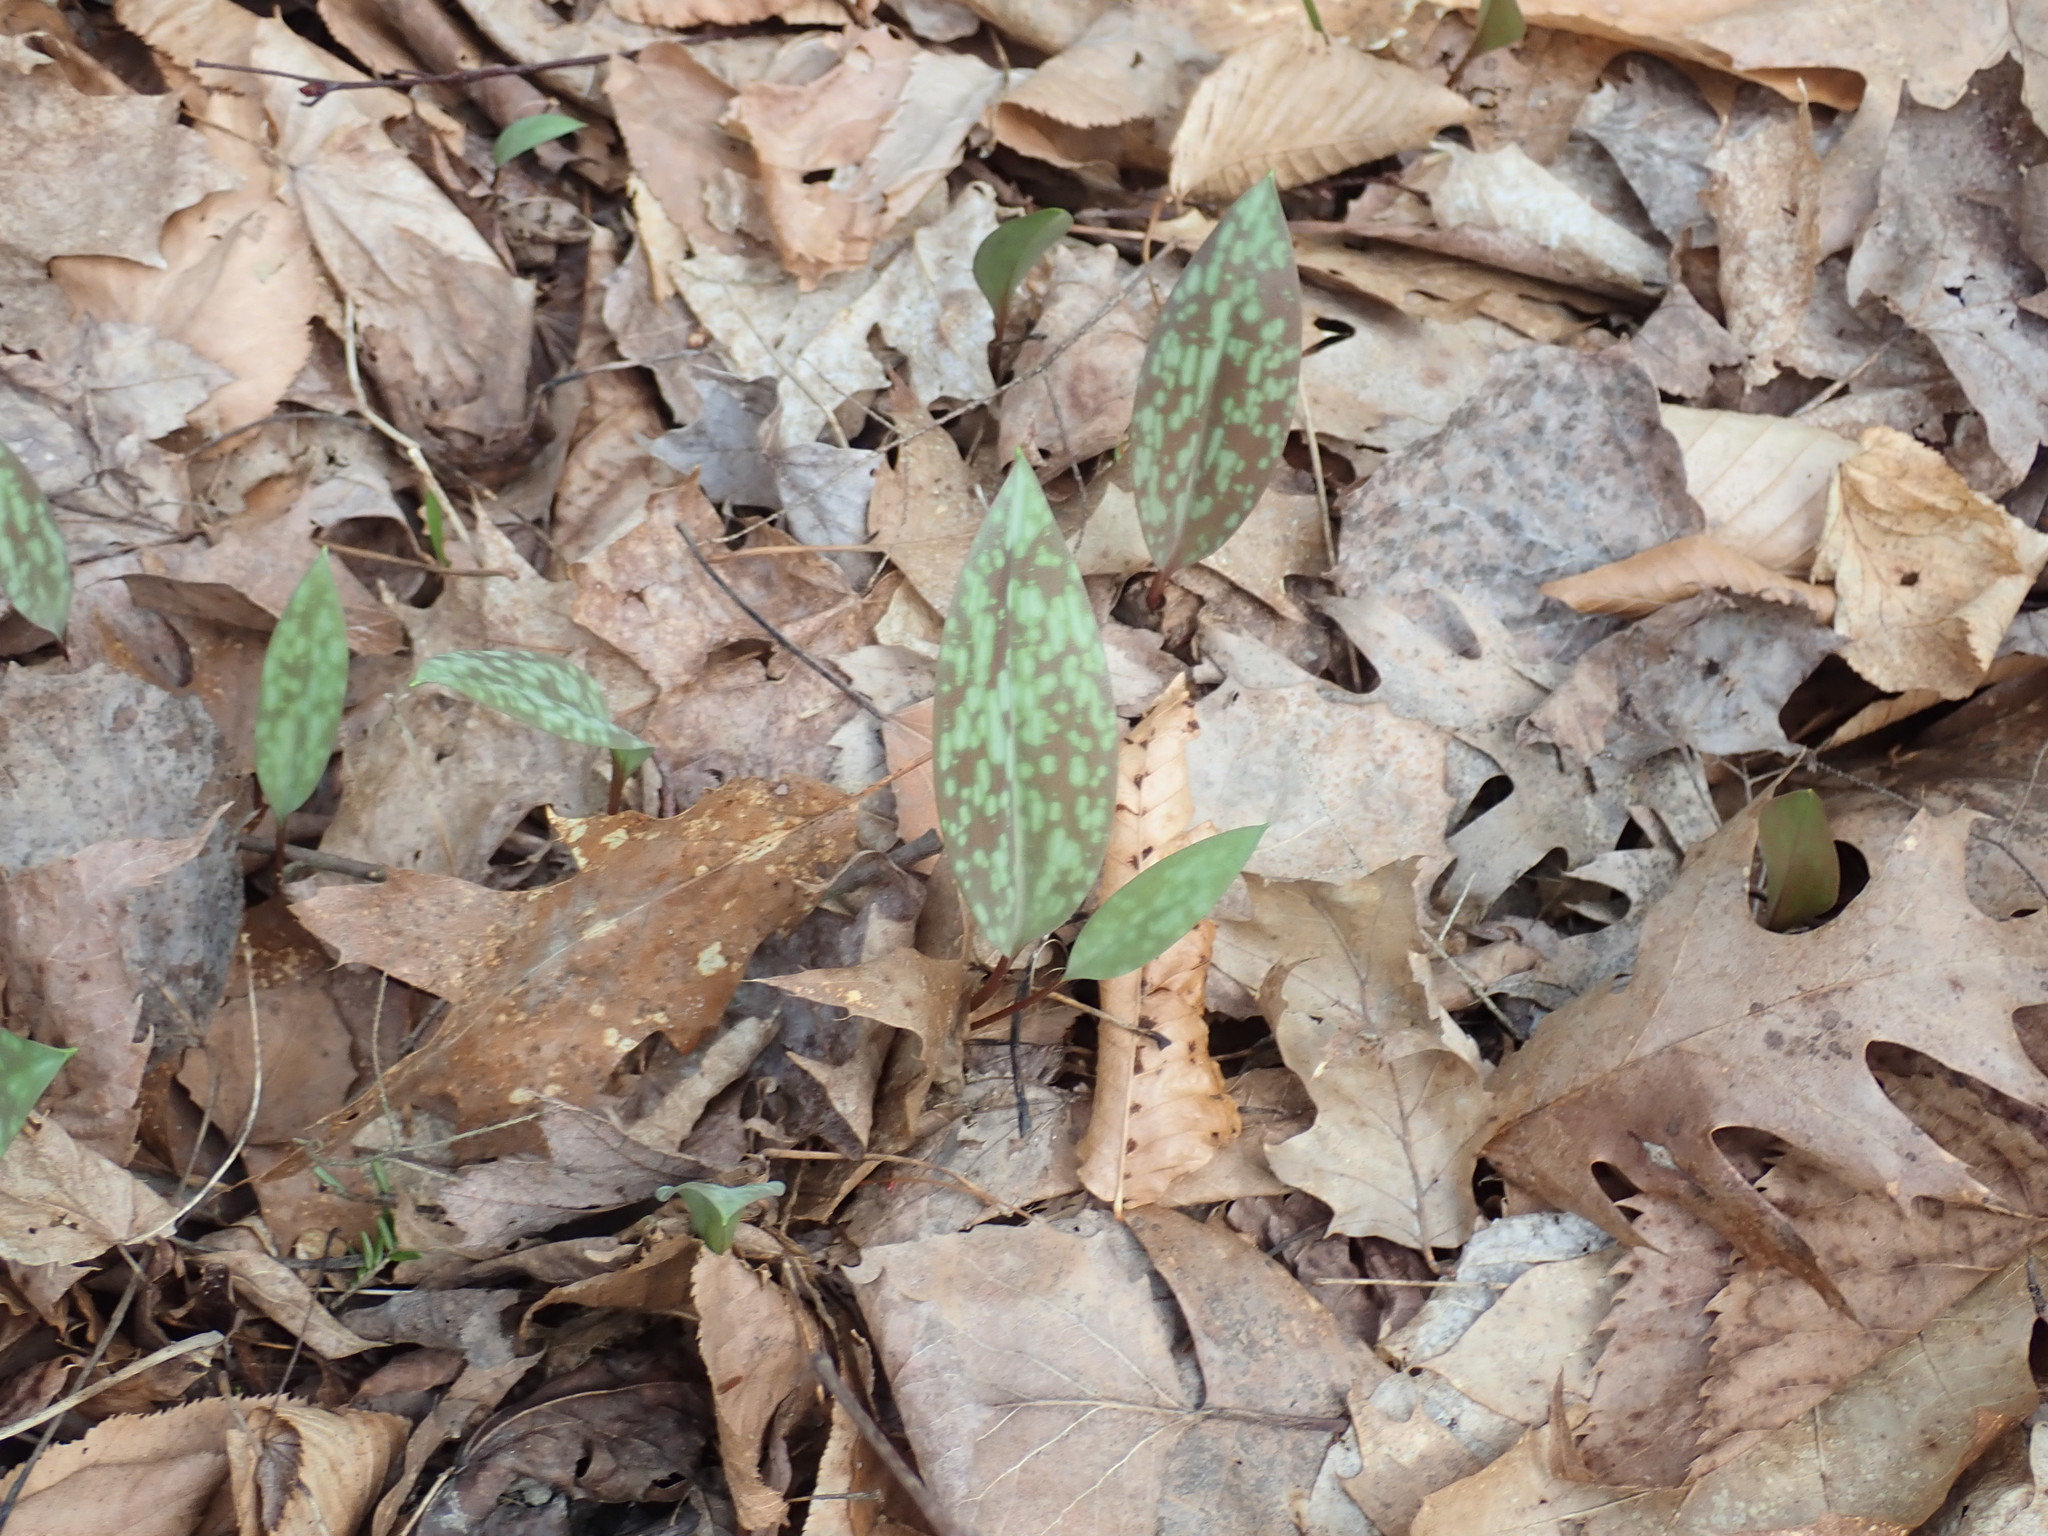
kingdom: Plantae
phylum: Tracheophyta
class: Liliopsida
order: Liliales
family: Liliaceae
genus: Erythronium
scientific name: Erythronium americanum
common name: Yellow adder's-tongue
